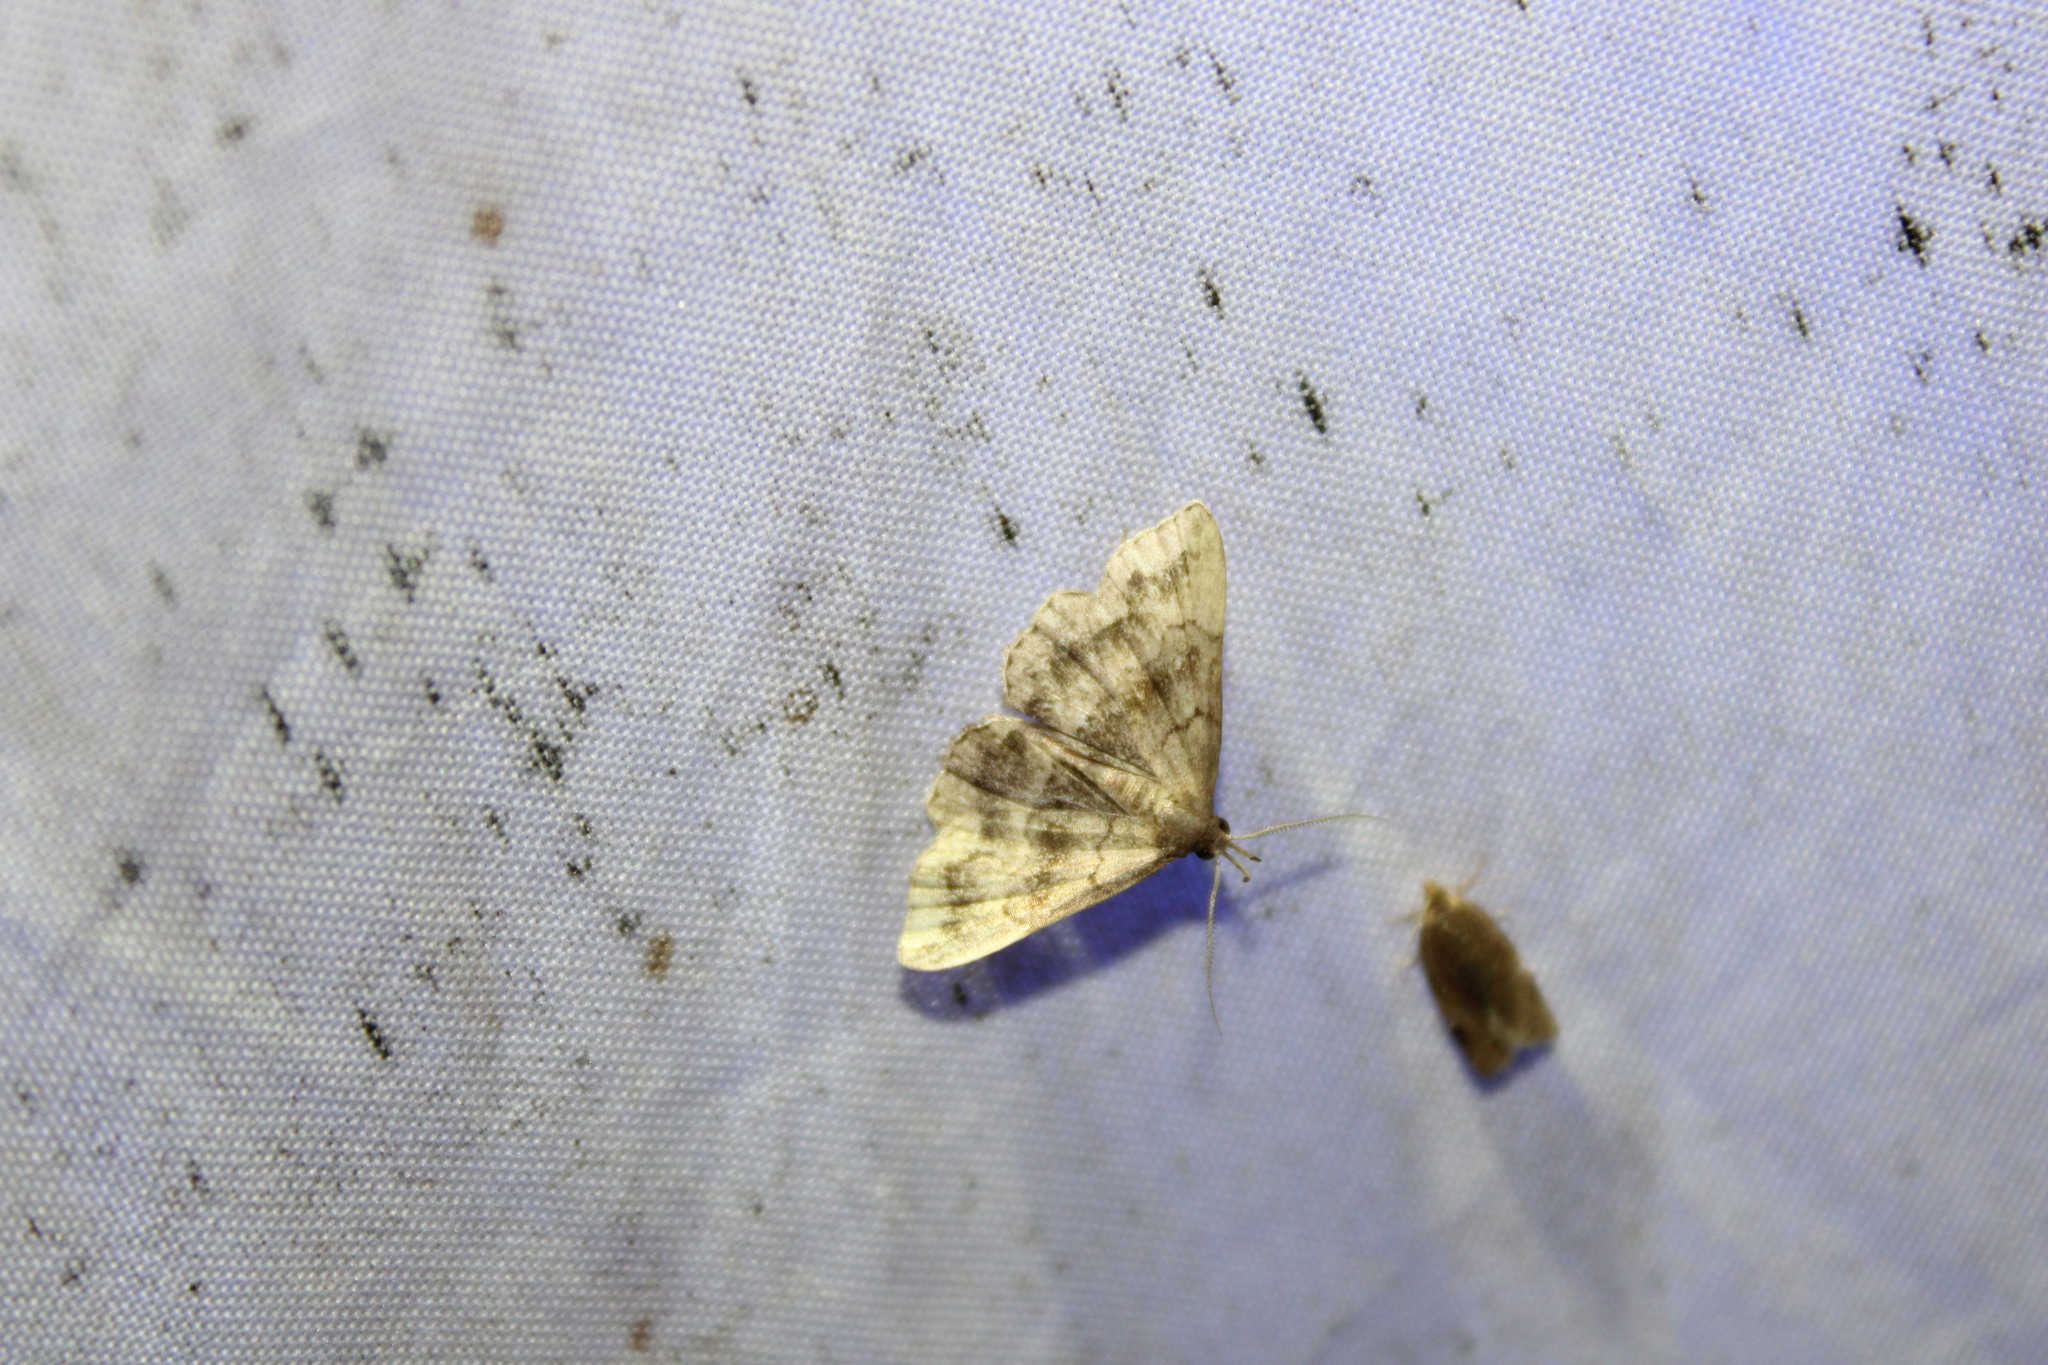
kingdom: Animalia
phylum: Arthropoda
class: Insecta
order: Lepidoptera
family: Erebidae
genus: Phalaenostola
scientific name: Phalaenostola larentioides
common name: Black-banded owlet
